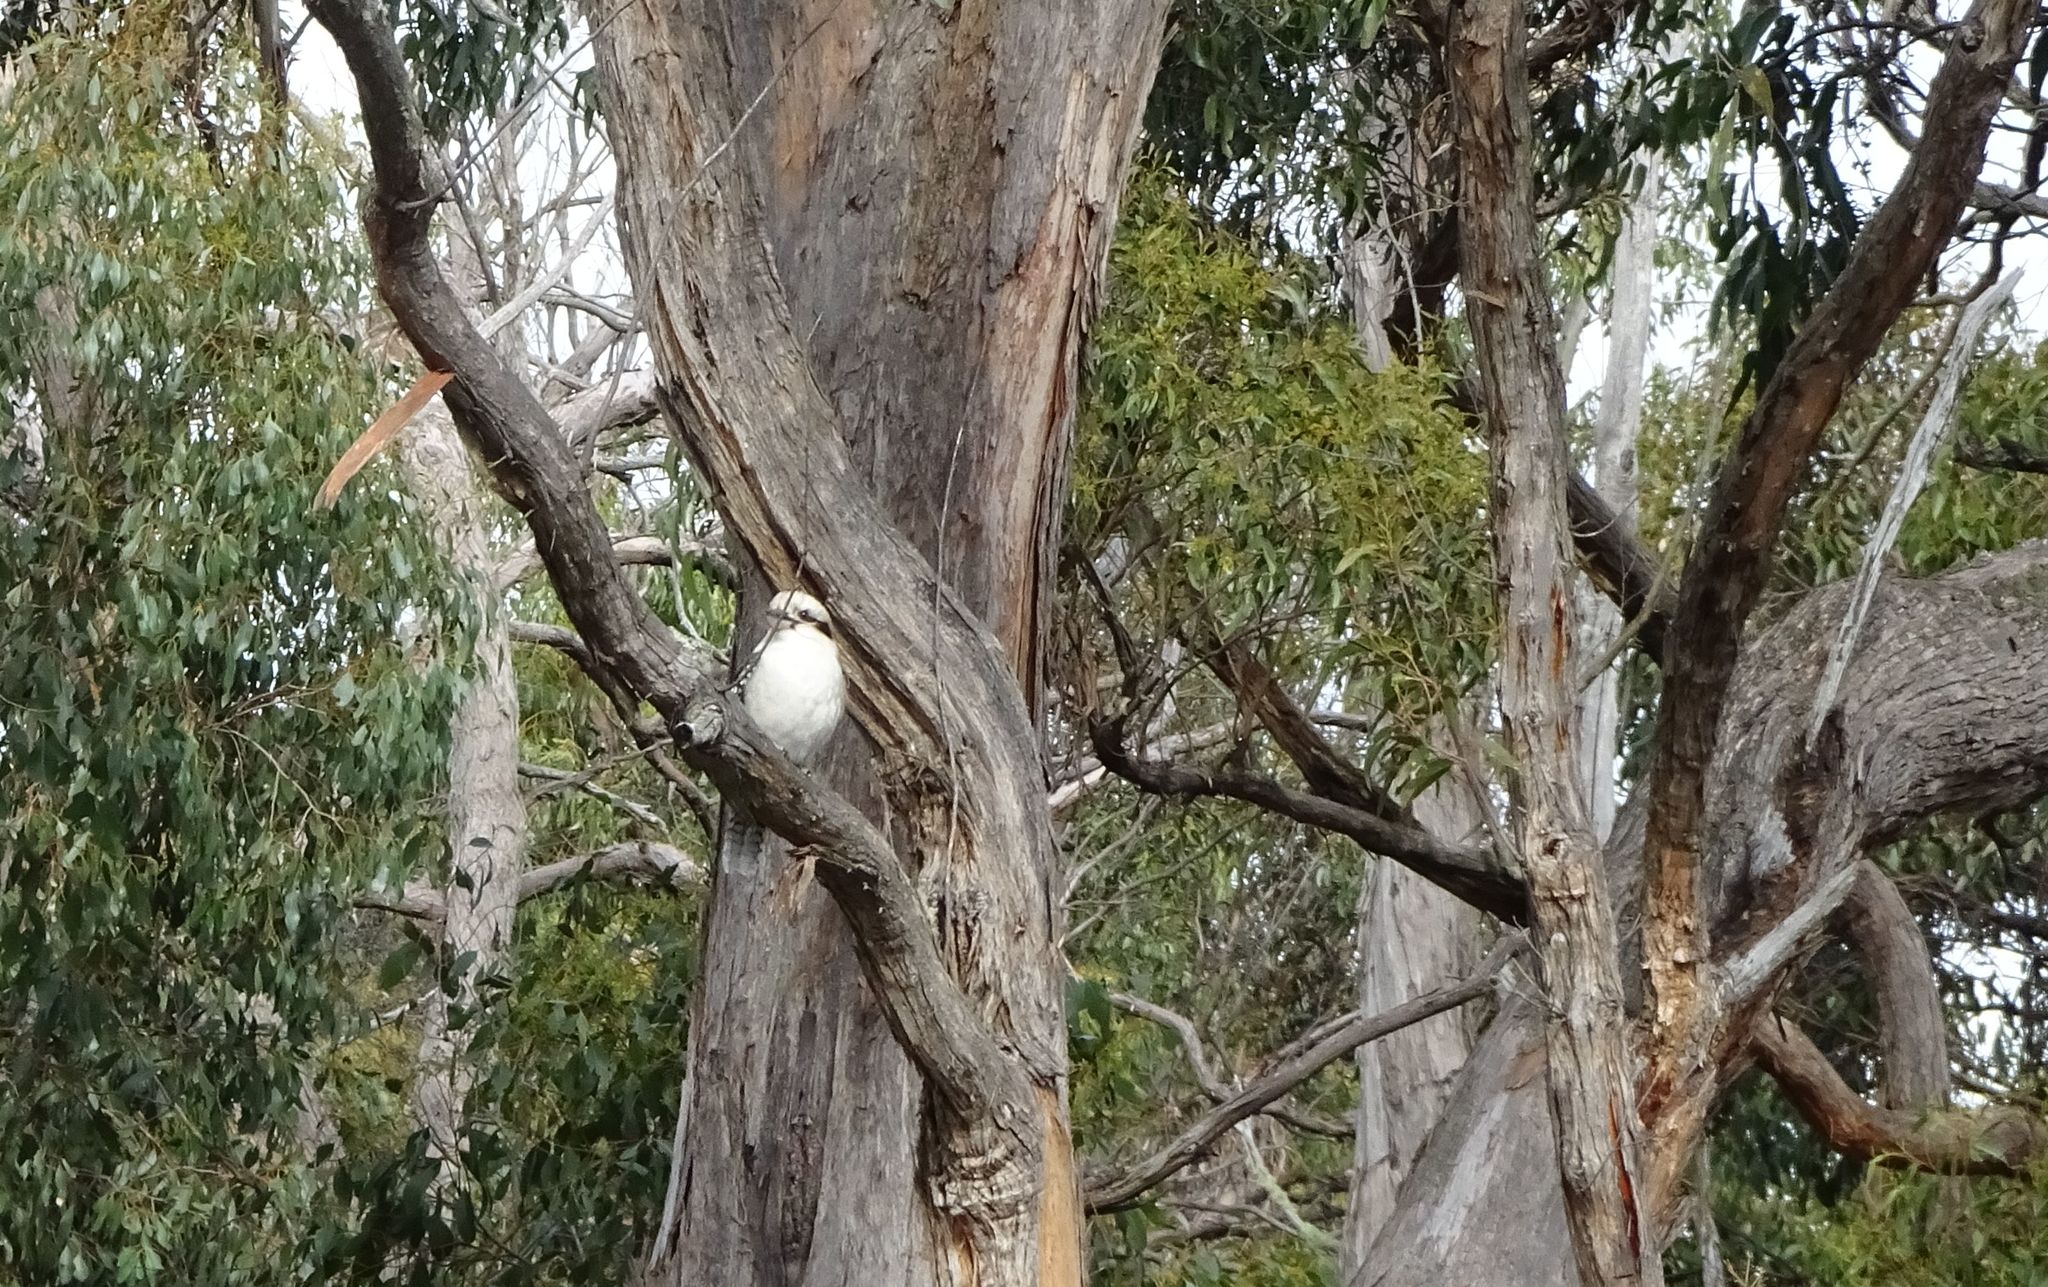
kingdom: Animalia
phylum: Chordata
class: Aves
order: Coraciiformes
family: Alcedinidae
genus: Dacelo
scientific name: Dacelo novaeguineae
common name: Laughing kookaburra
